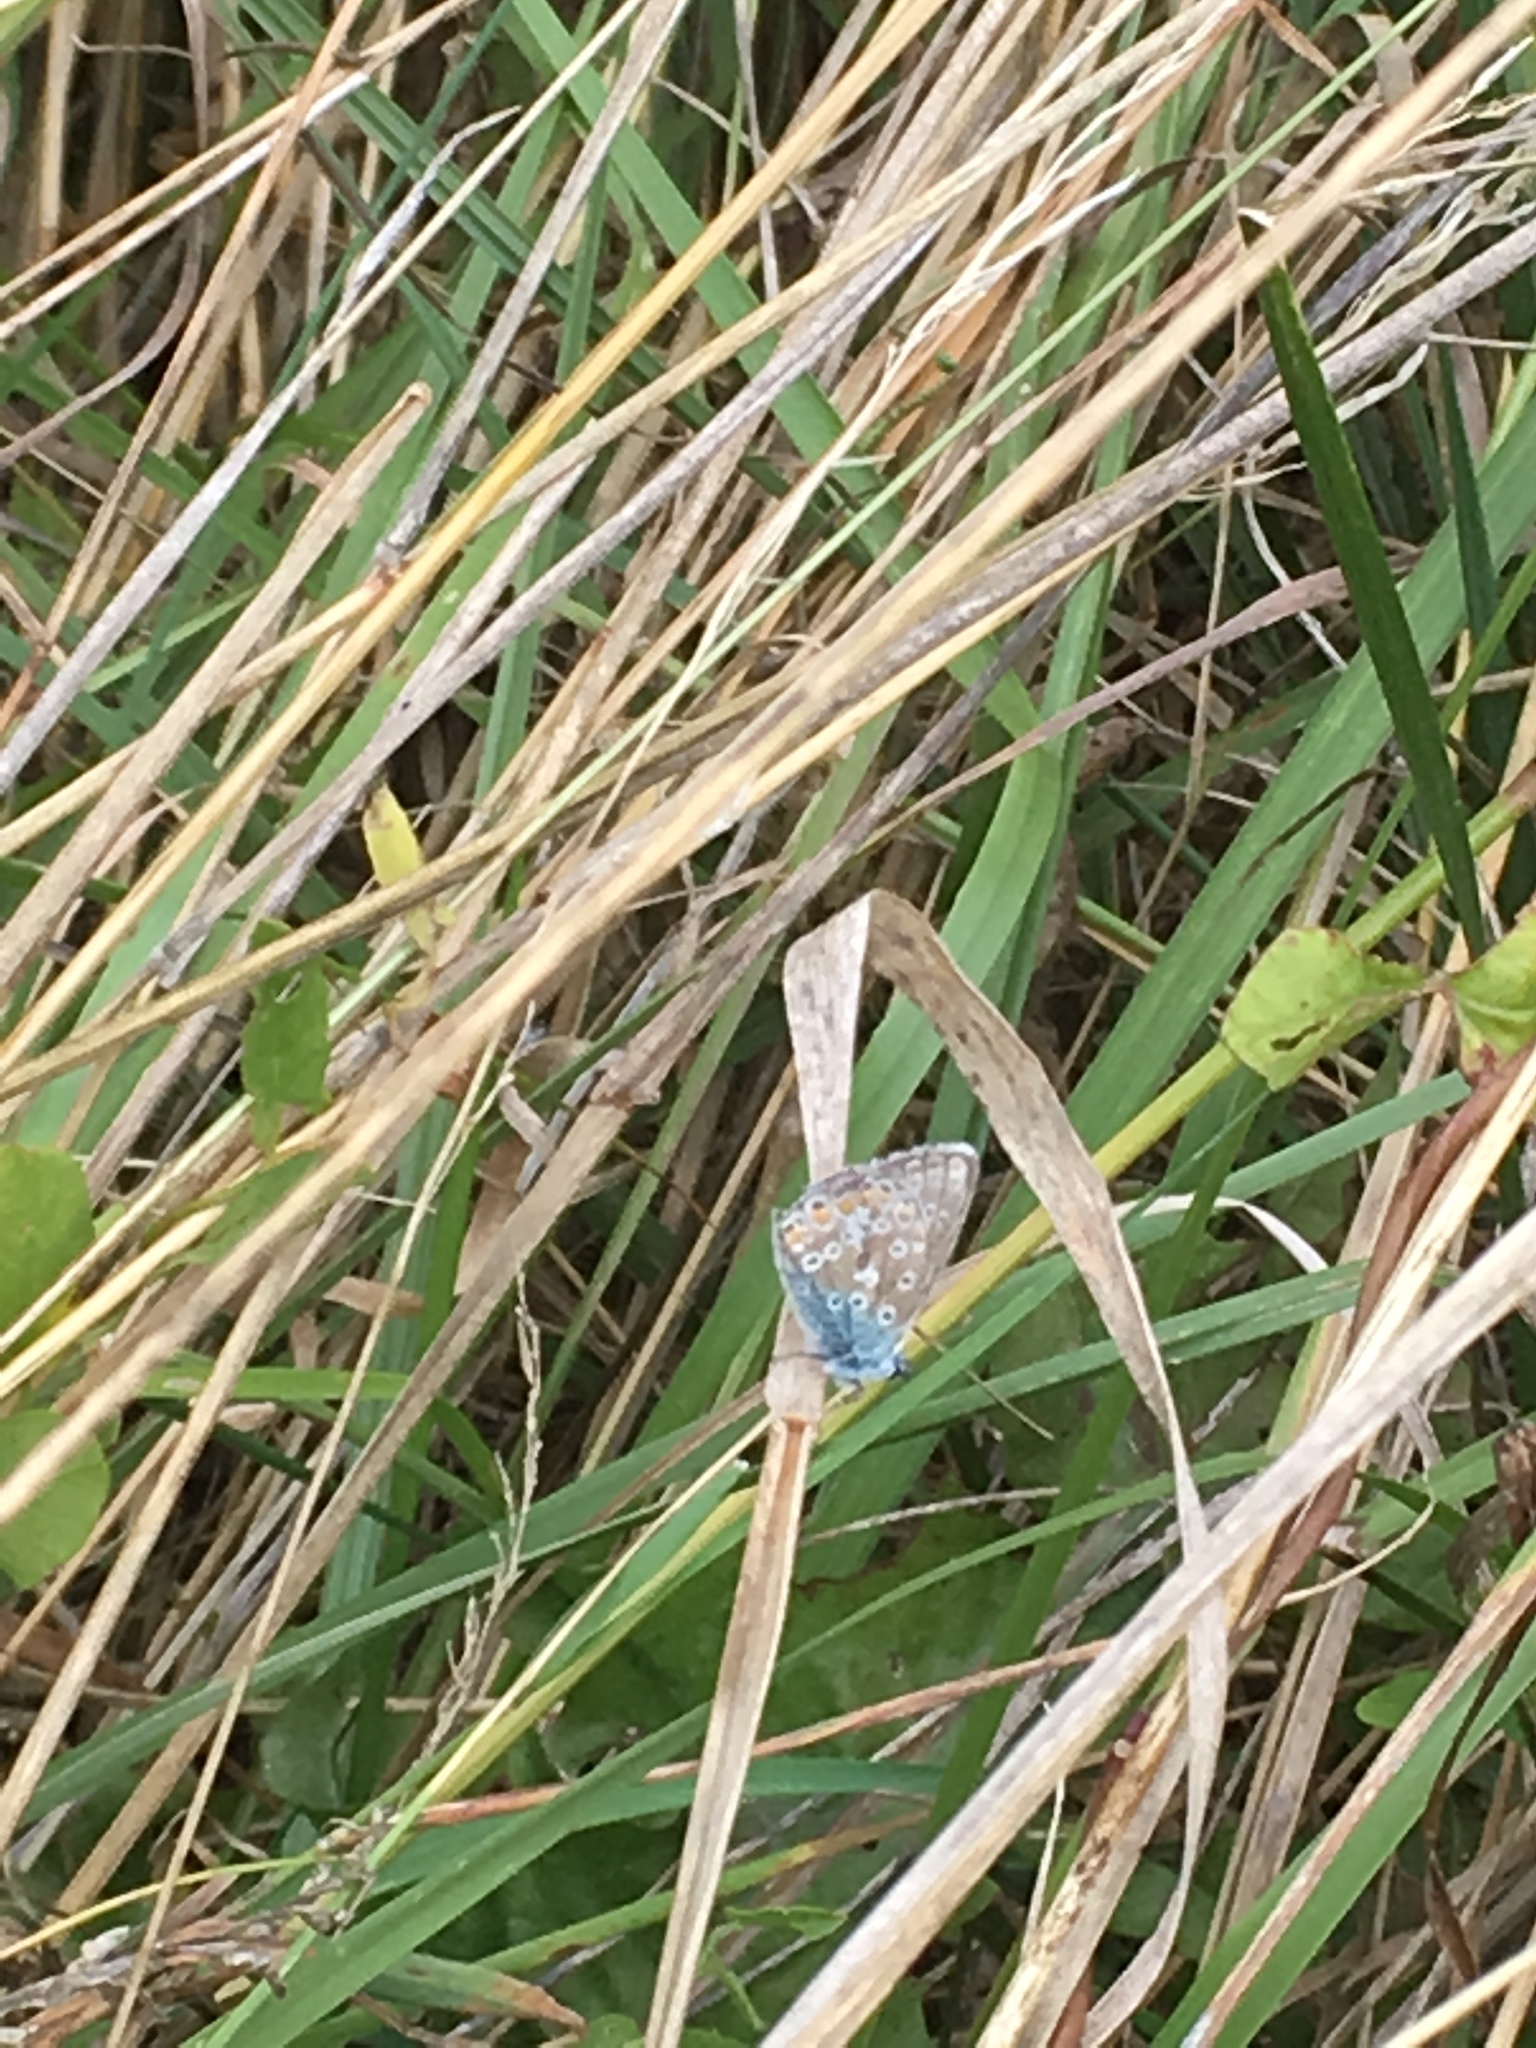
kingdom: Animalia
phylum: Arthropoda
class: Insecta
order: Lepidoptera
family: Lycaenidae
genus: Polyommatus
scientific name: Polyommatus icarus
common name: Common blue
